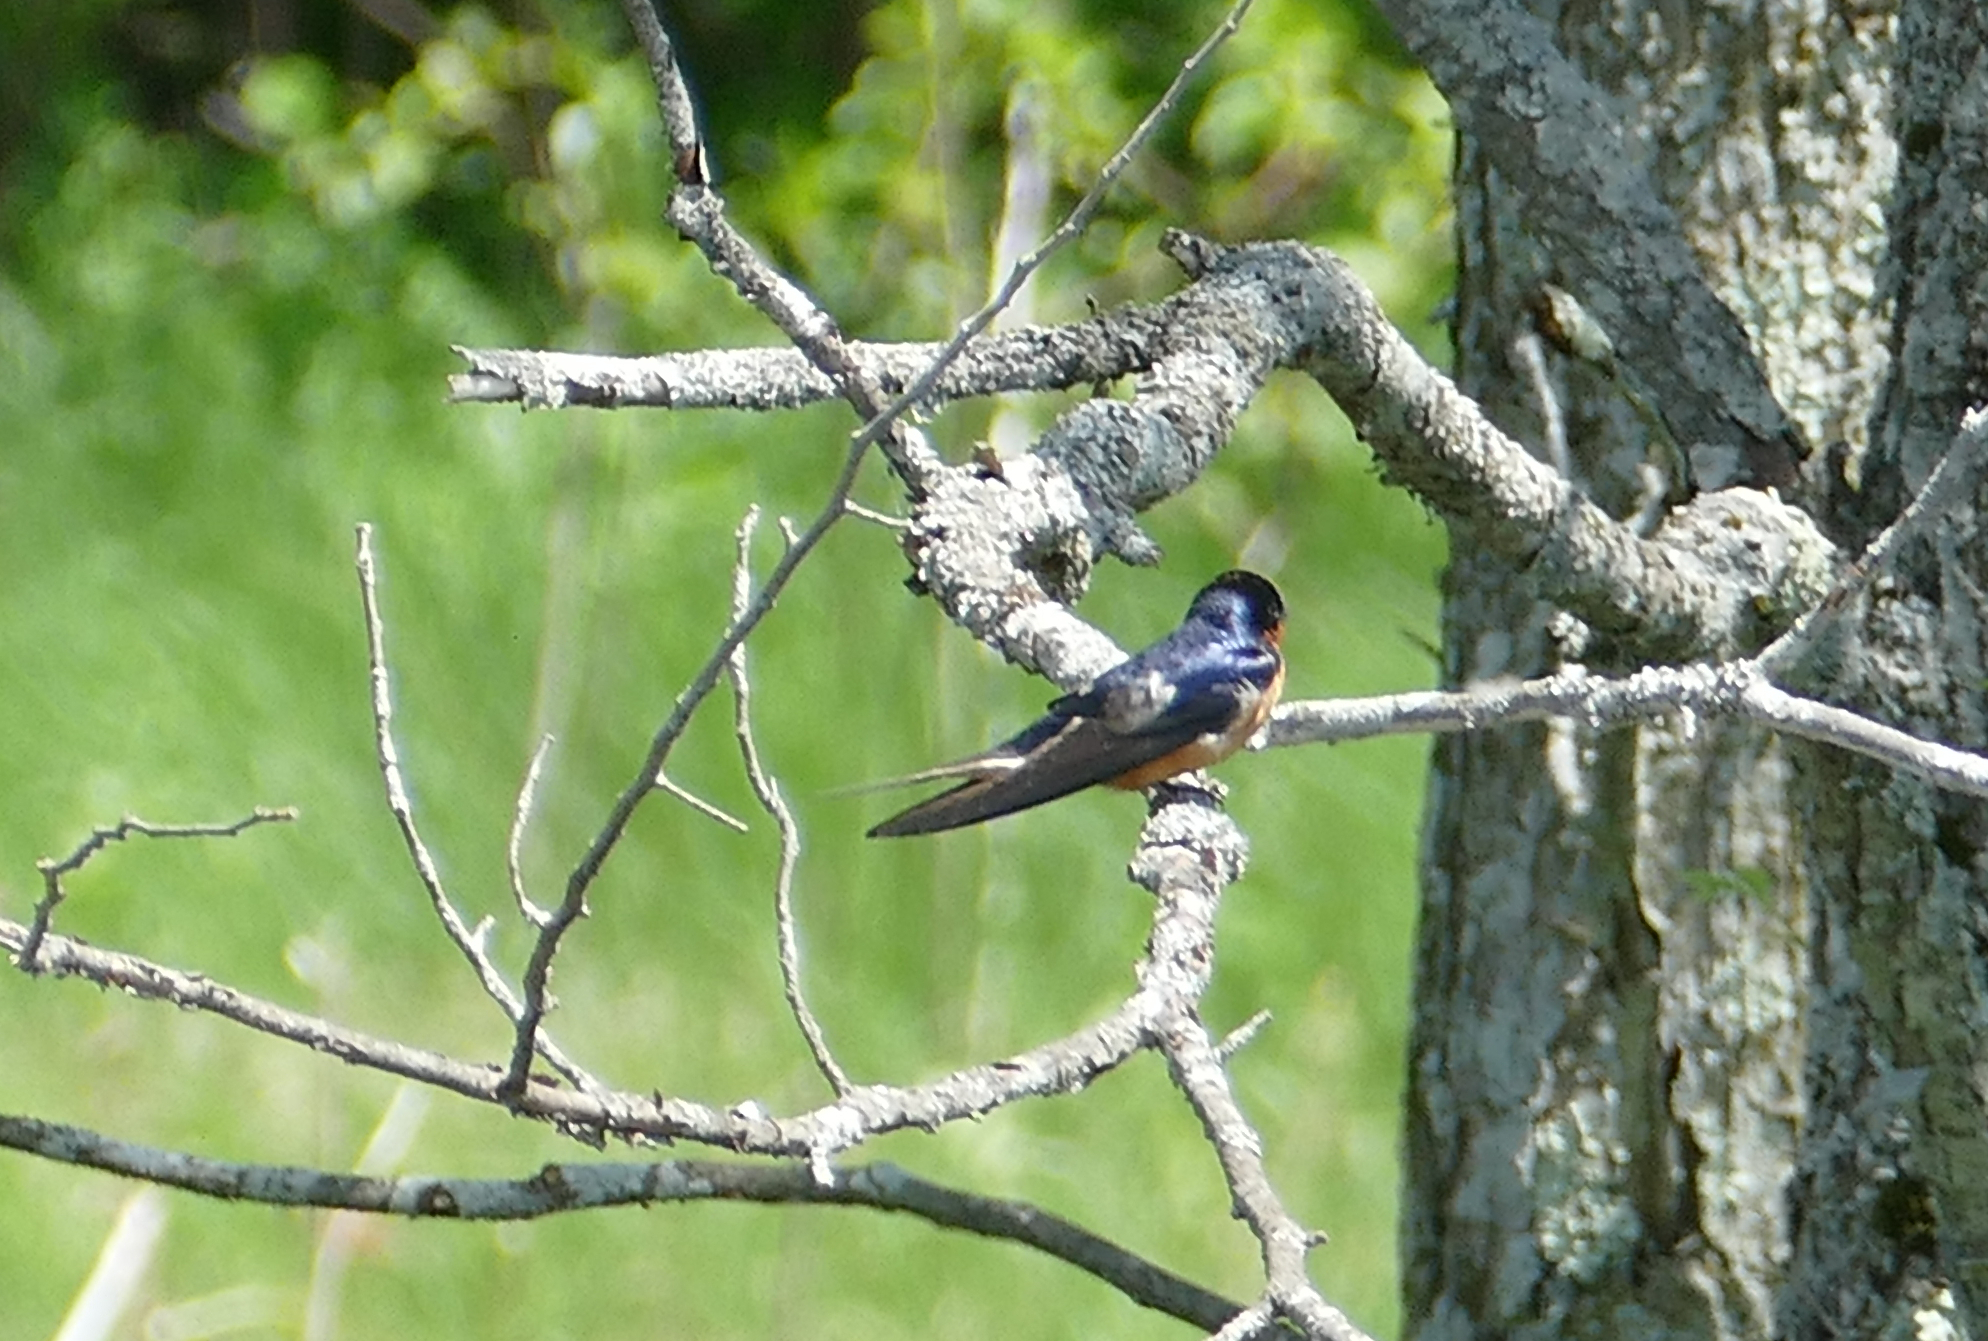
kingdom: Animalia
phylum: Chordata
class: Aves
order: Passeriformes
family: Hirundinidae
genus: Hirundo
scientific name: Hirundo rustica
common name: Barn swallow
